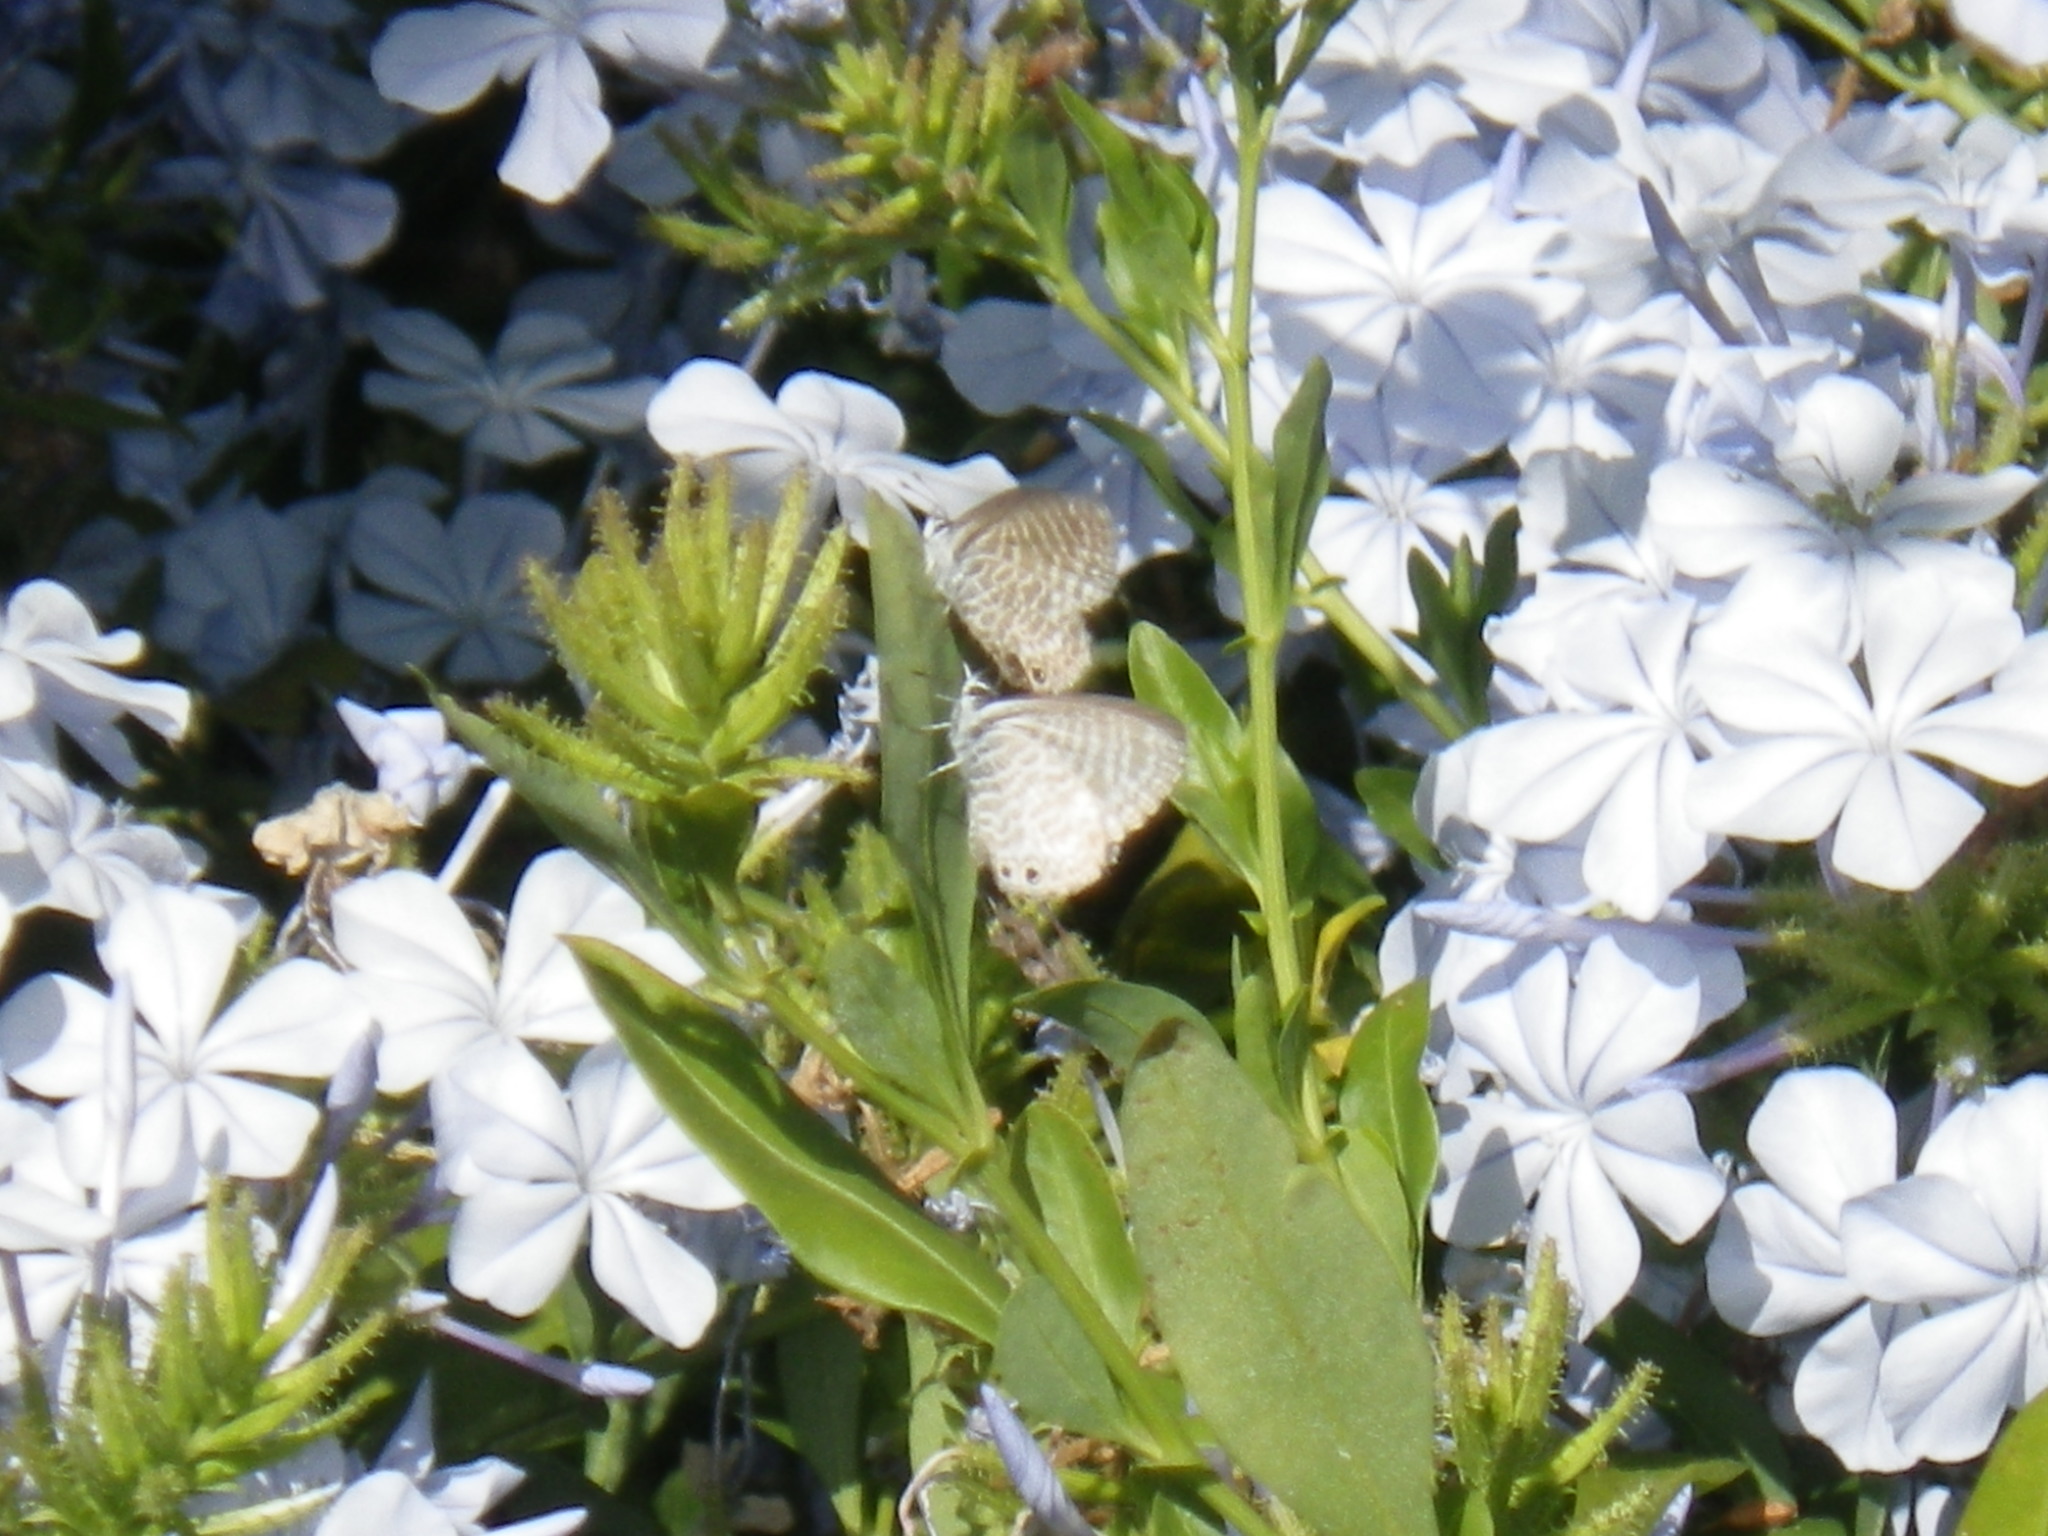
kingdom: Animalia
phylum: Arthropoda
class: Insecta
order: Lepidoptera
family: Lycaenidae
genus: Leptotes
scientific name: Leptotes marina
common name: Marine blue
